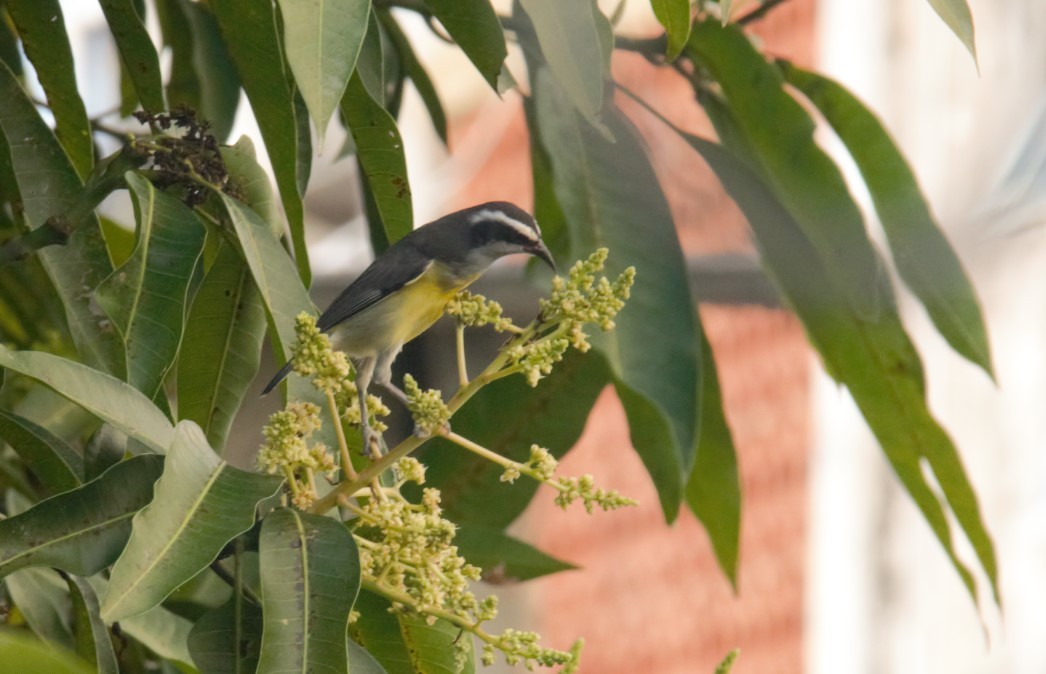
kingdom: Animalia
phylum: Chordata
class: Aves
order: Passeriformes
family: Thraupidae
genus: Coereba
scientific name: Coereba flaveola
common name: Bananaquit
